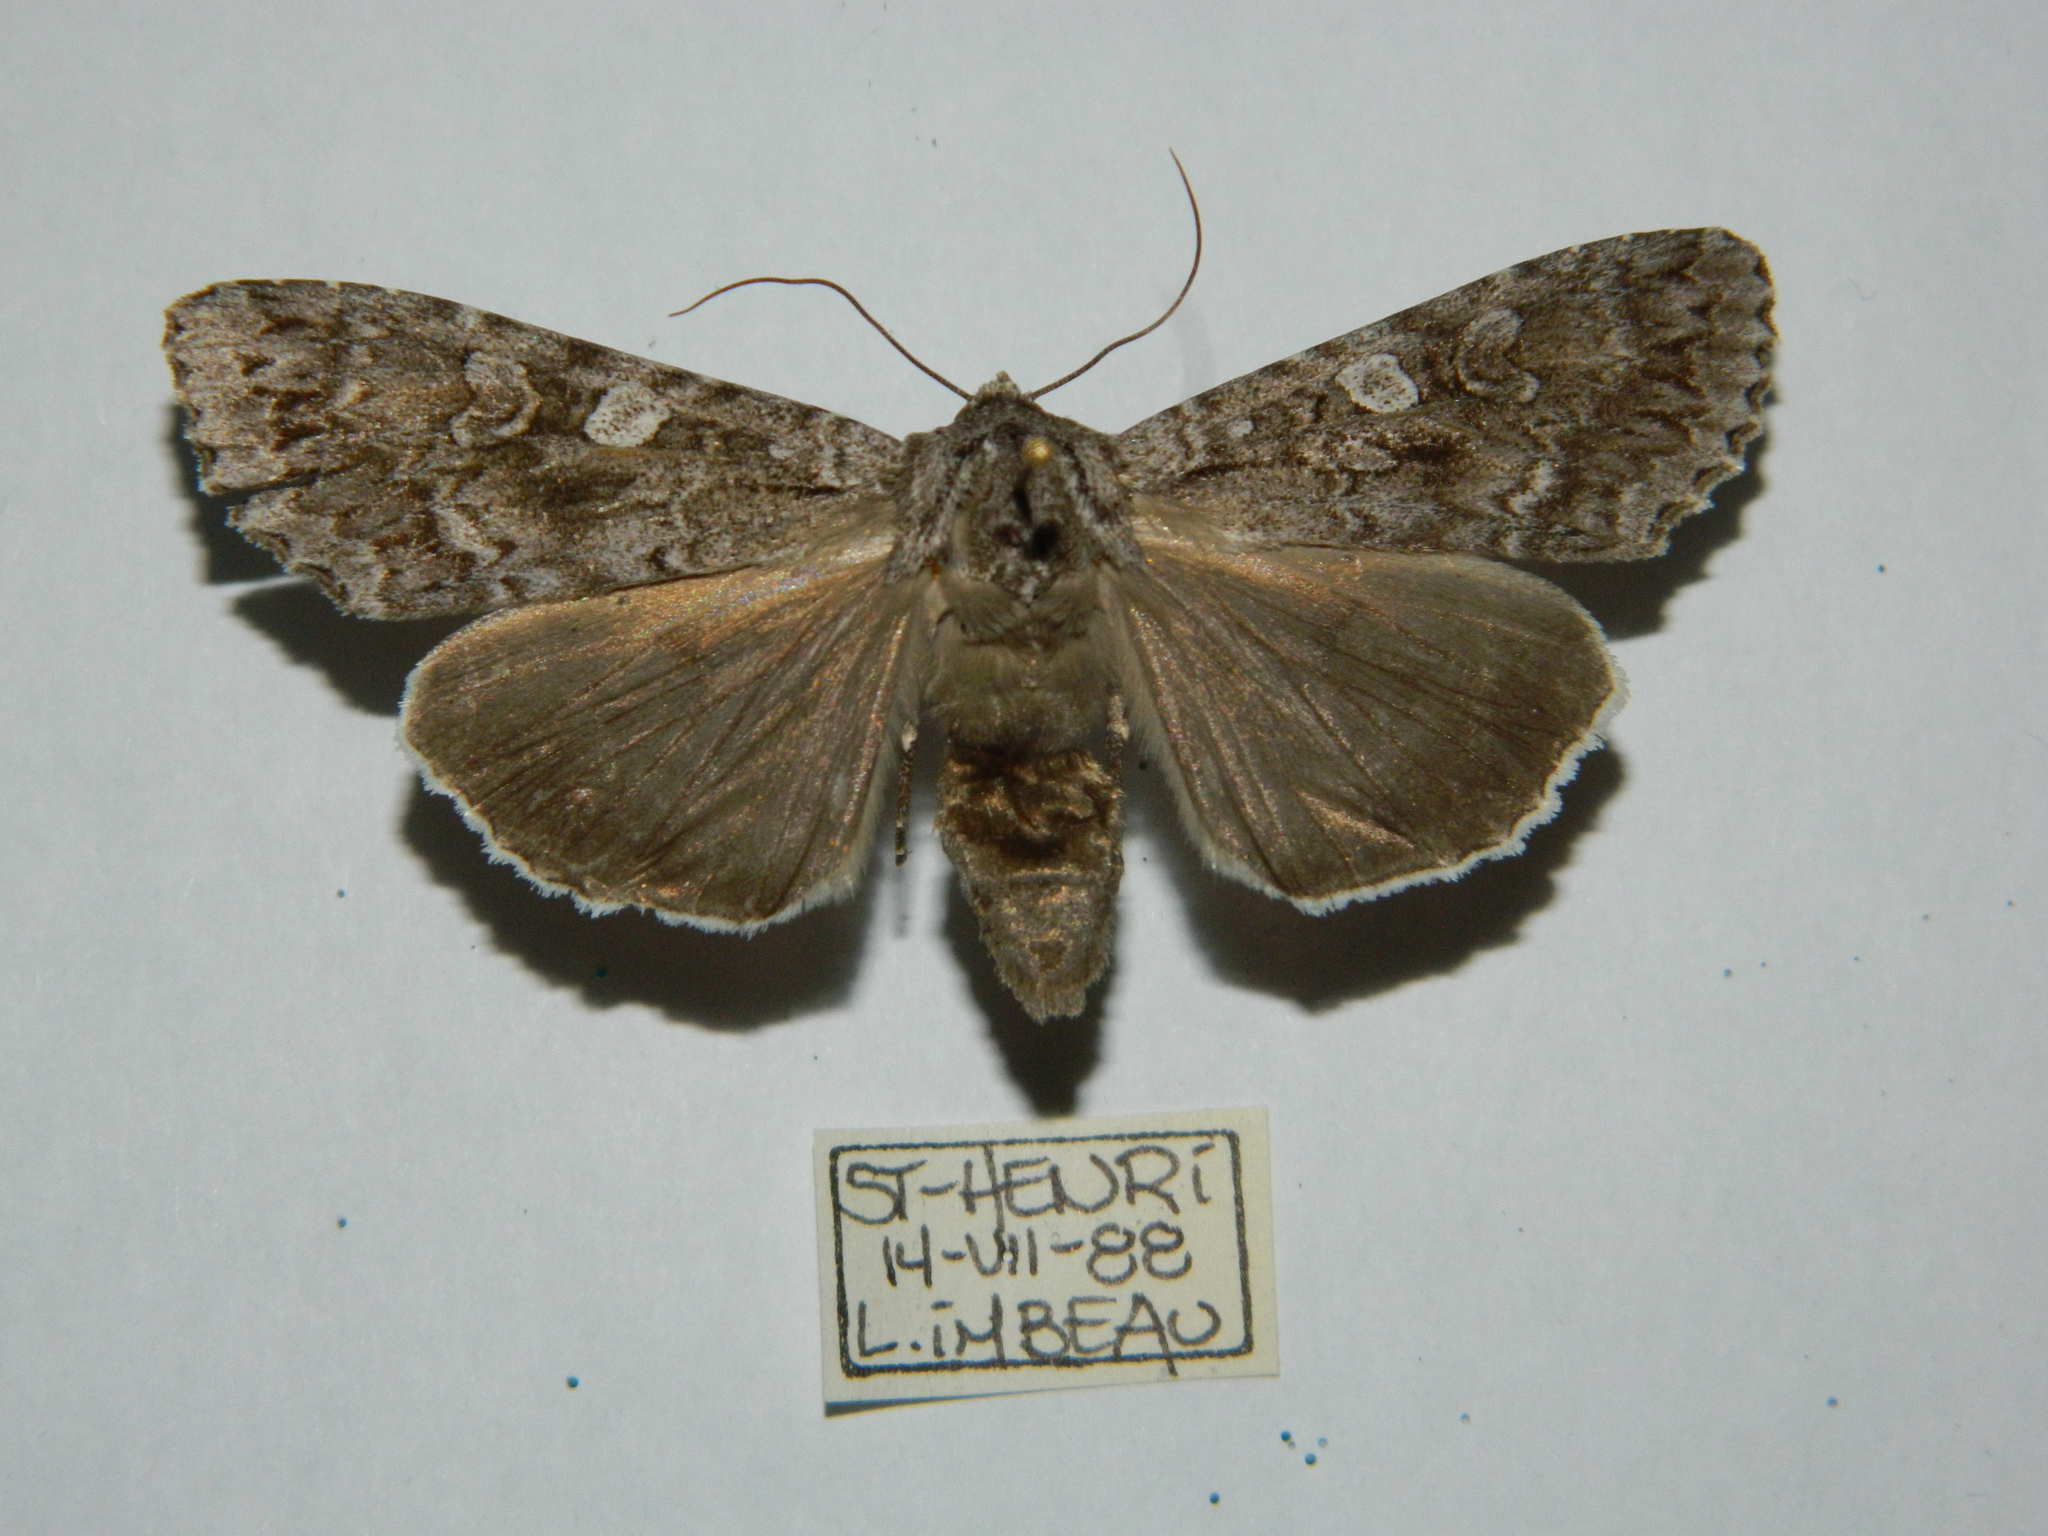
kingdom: Animalia
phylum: Arthropoda
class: Insecta
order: Lepidoptera
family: Noctuidae
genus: Eurois
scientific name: Eurois occulta
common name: Great brocade
